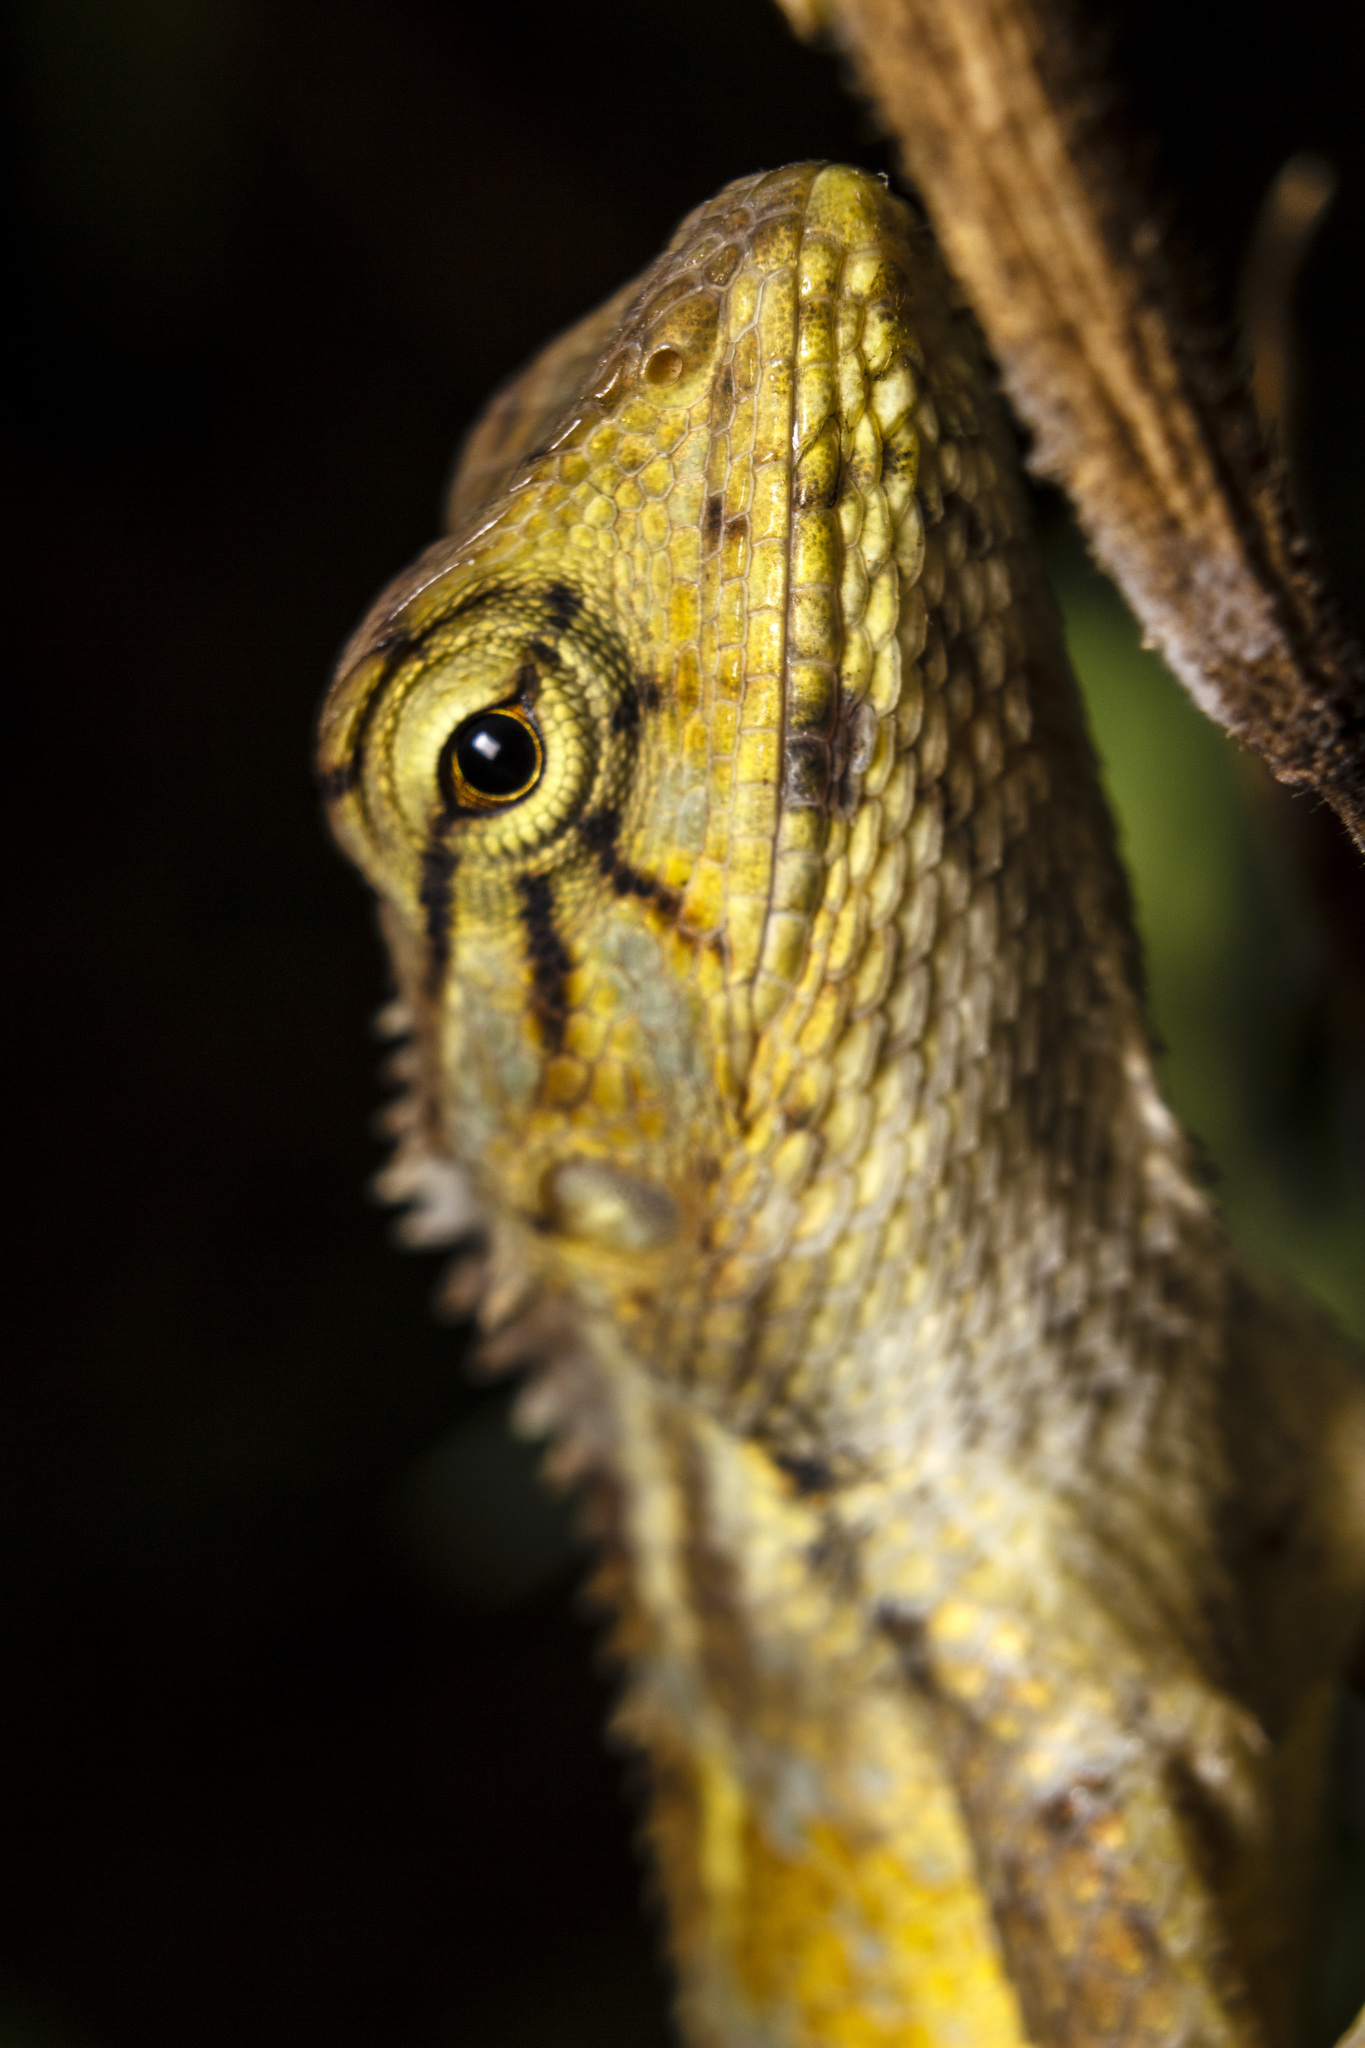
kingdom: Animalia
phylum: Chordata
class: Squamata
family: Agamidae
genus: Calotes
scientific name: Calotes versicolor
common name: Oriental garden lizard
